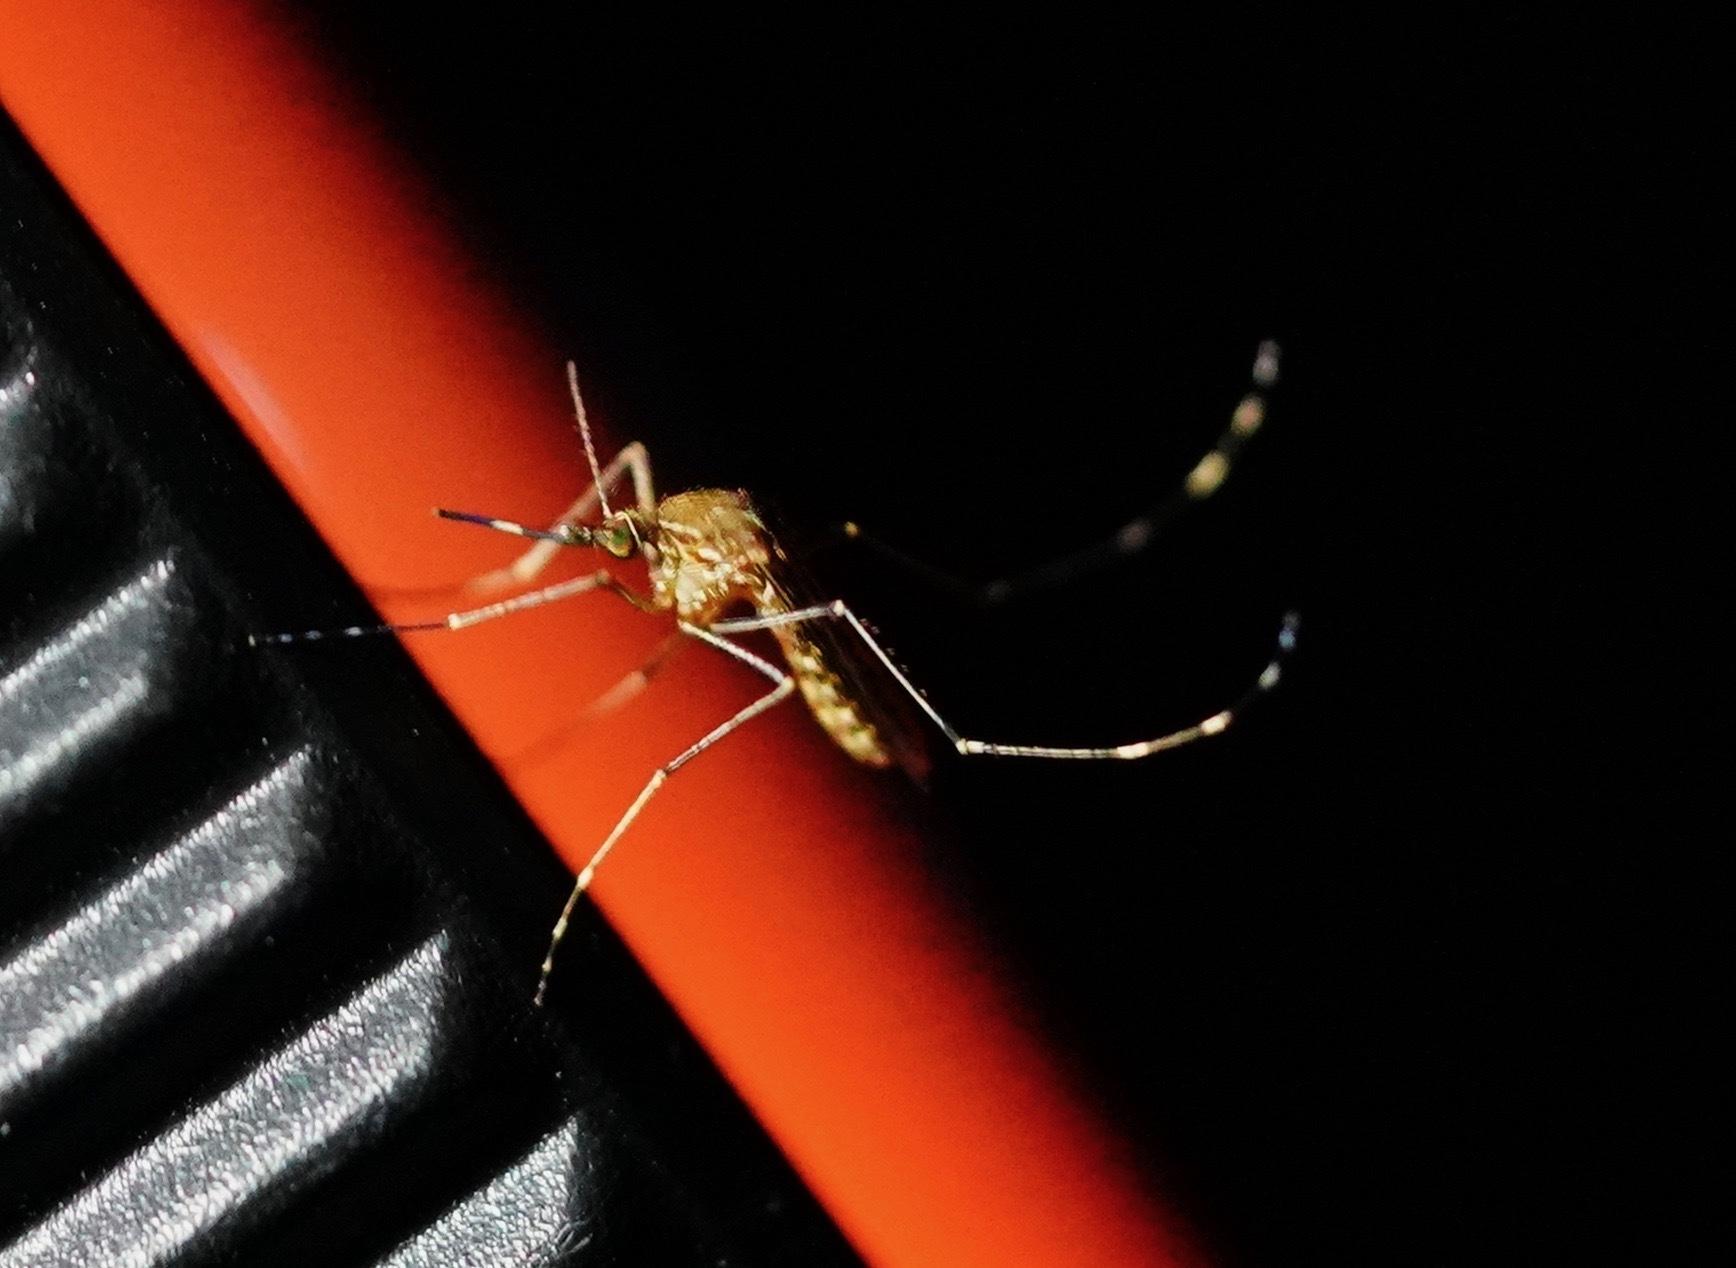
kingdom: Animalia
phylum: Arthropoda
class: Insecta
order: Diptera
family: Culicidae
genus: Culex
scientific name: Culex tarsalis
